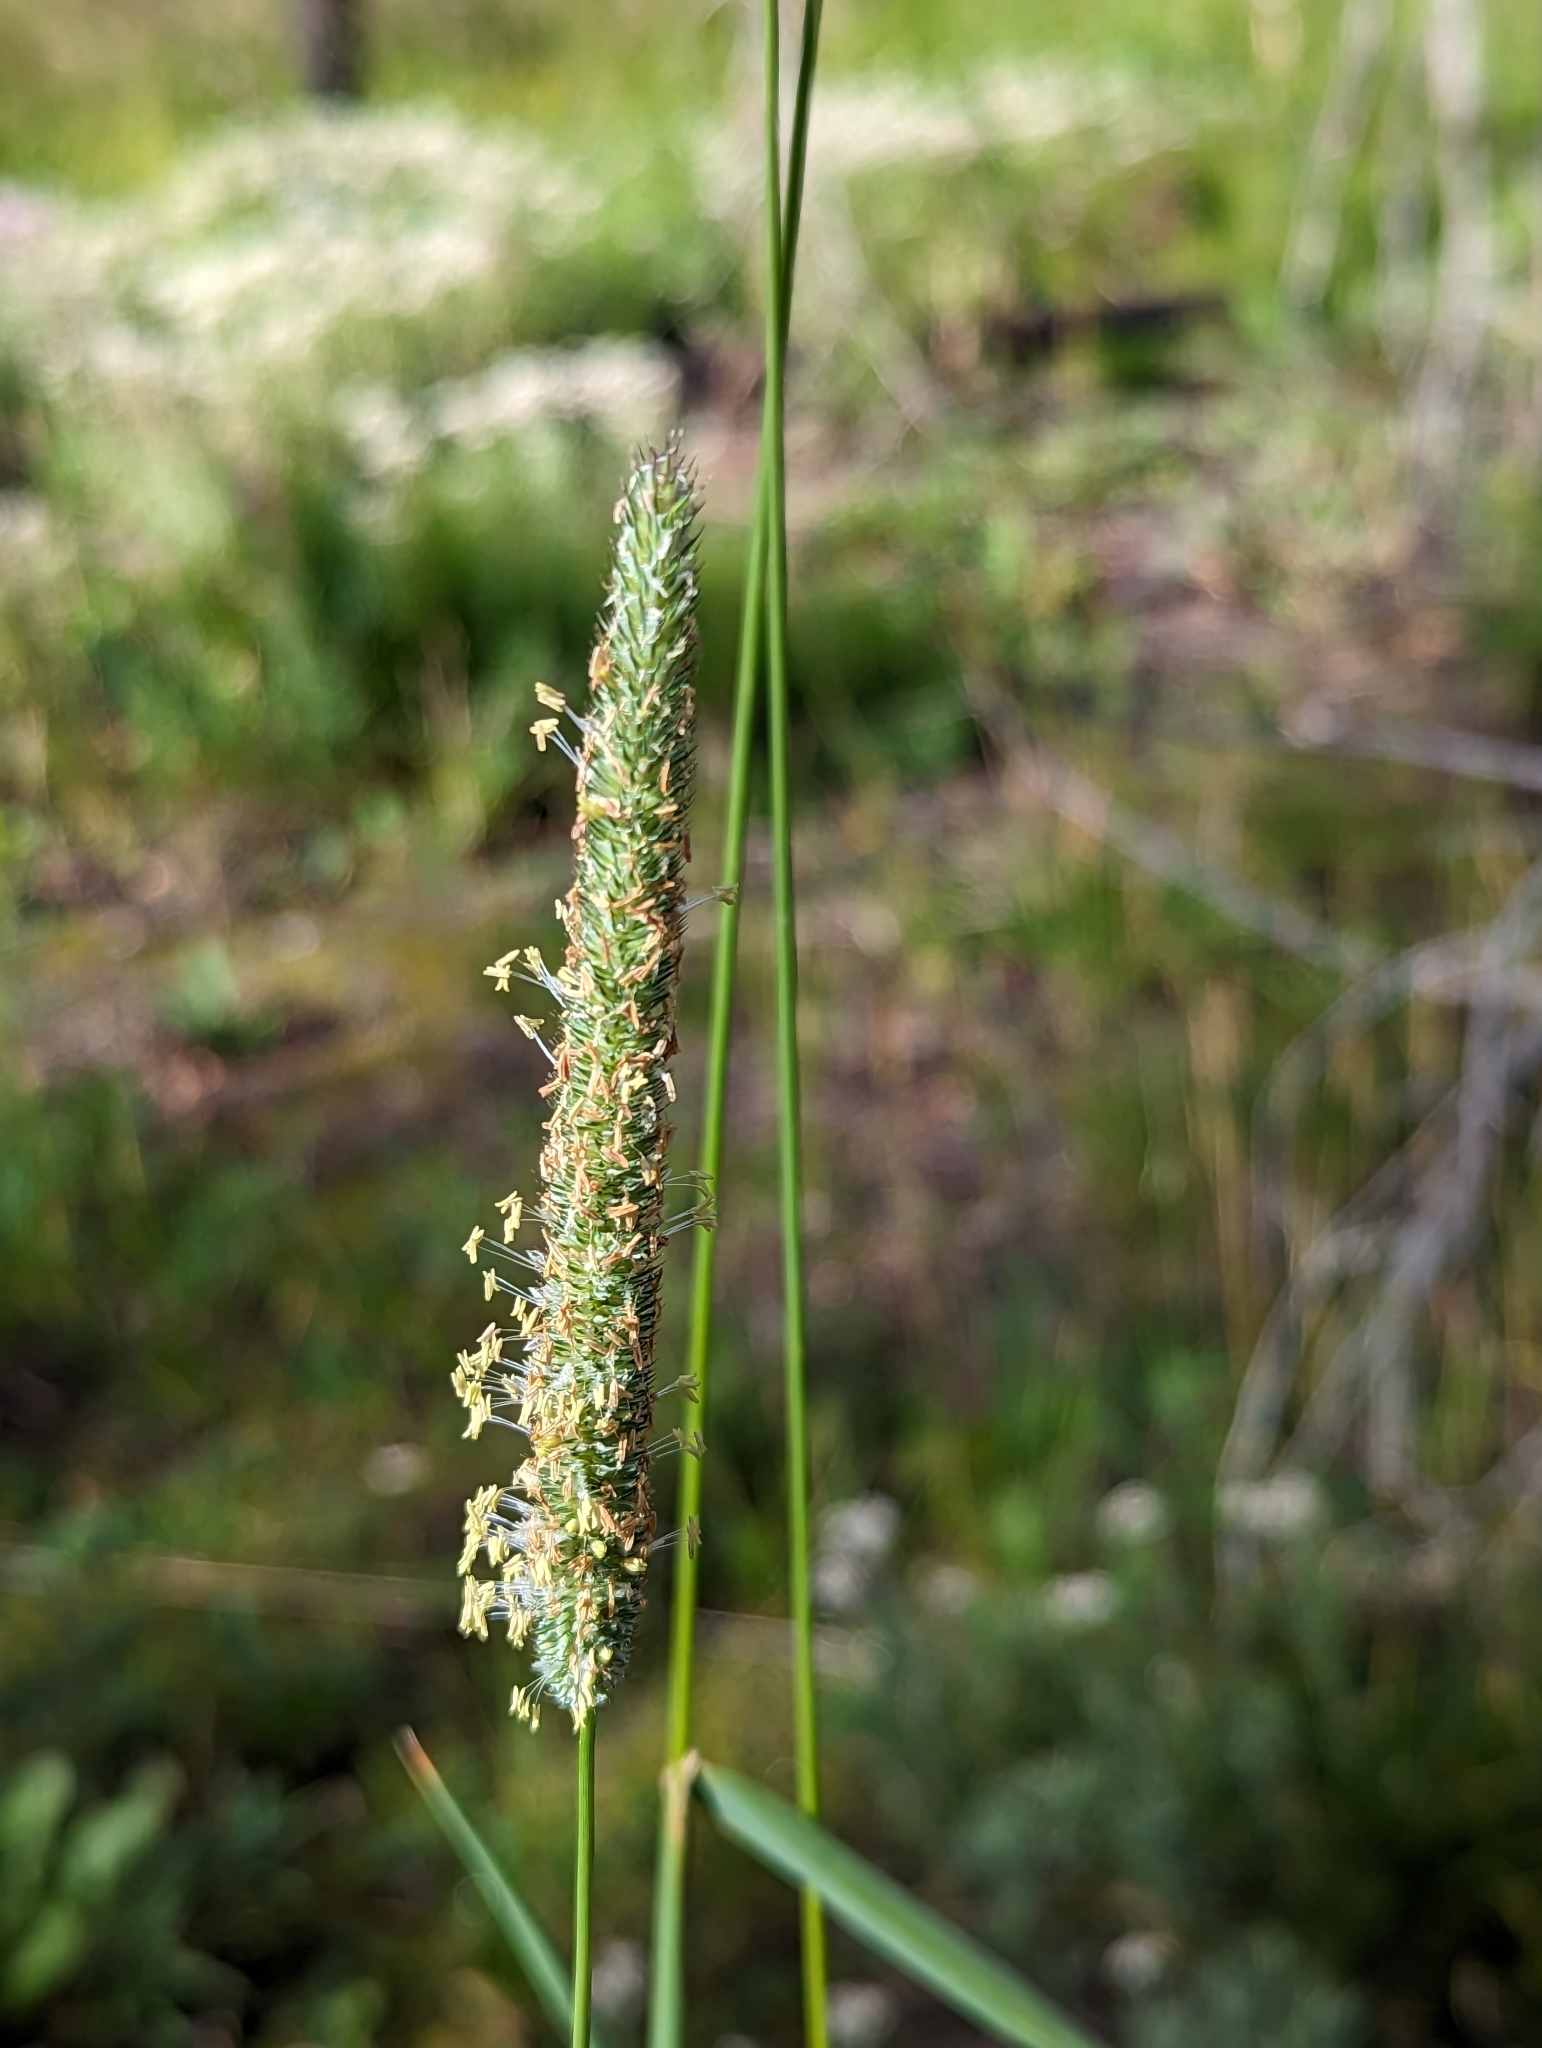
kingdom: Plantae
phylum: Tracheophyta
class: Liliopsida
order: Poales
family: Poaceae
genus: Phleum
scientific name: Phleum pratense
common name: Timothy grass
